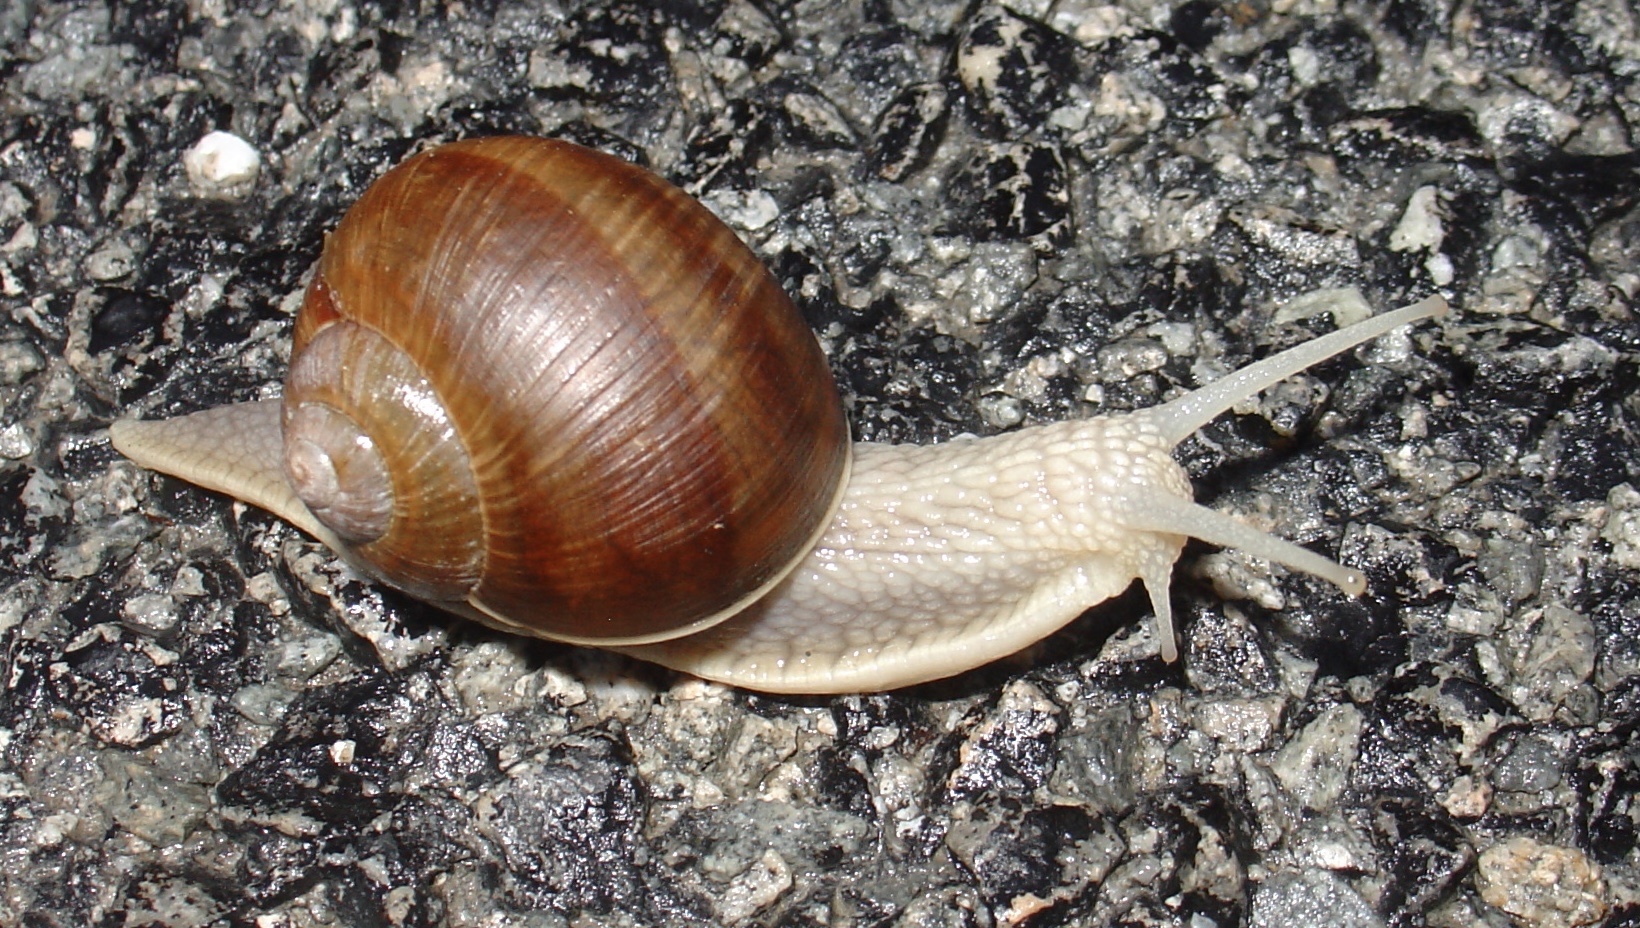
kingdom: Animalia
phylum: Mollusca
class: Gastropoda
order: Stylommatophora
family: Helicidae
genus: Helix
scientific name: Helix pomatia
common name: Roman snail
